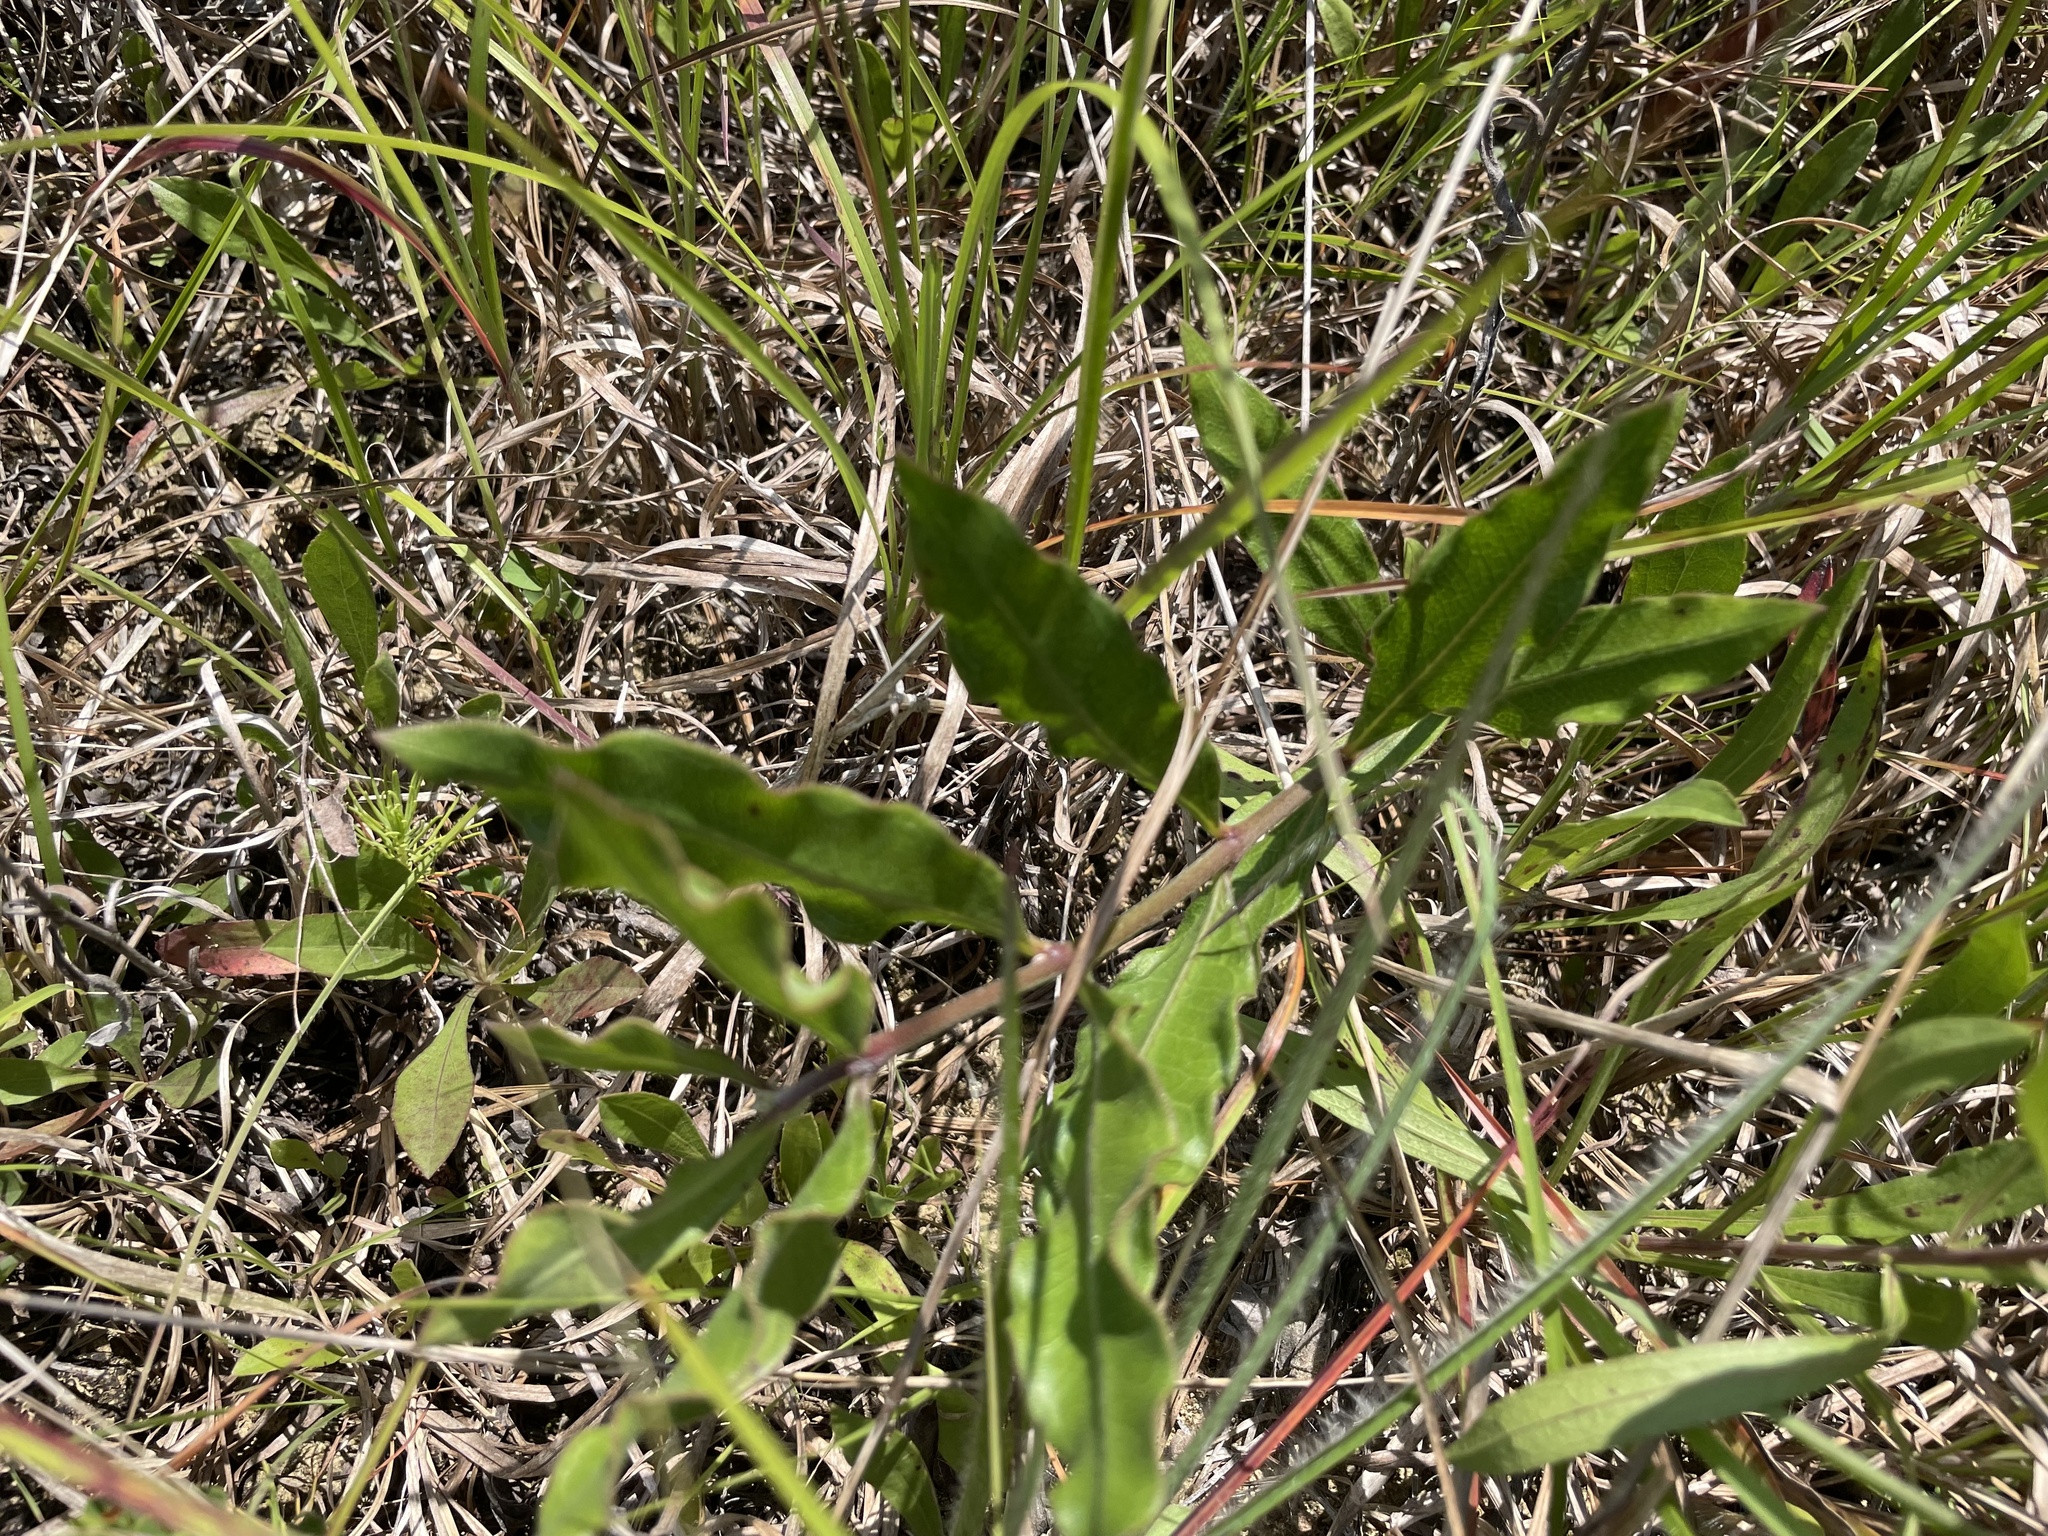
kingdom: Plantae
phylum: Tracheophyta
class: Magnoliopsida
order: Gentianales
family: Apocynaceae
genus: Asclepias
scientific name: Asclepias viridiflora
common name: Green comet milkweed
